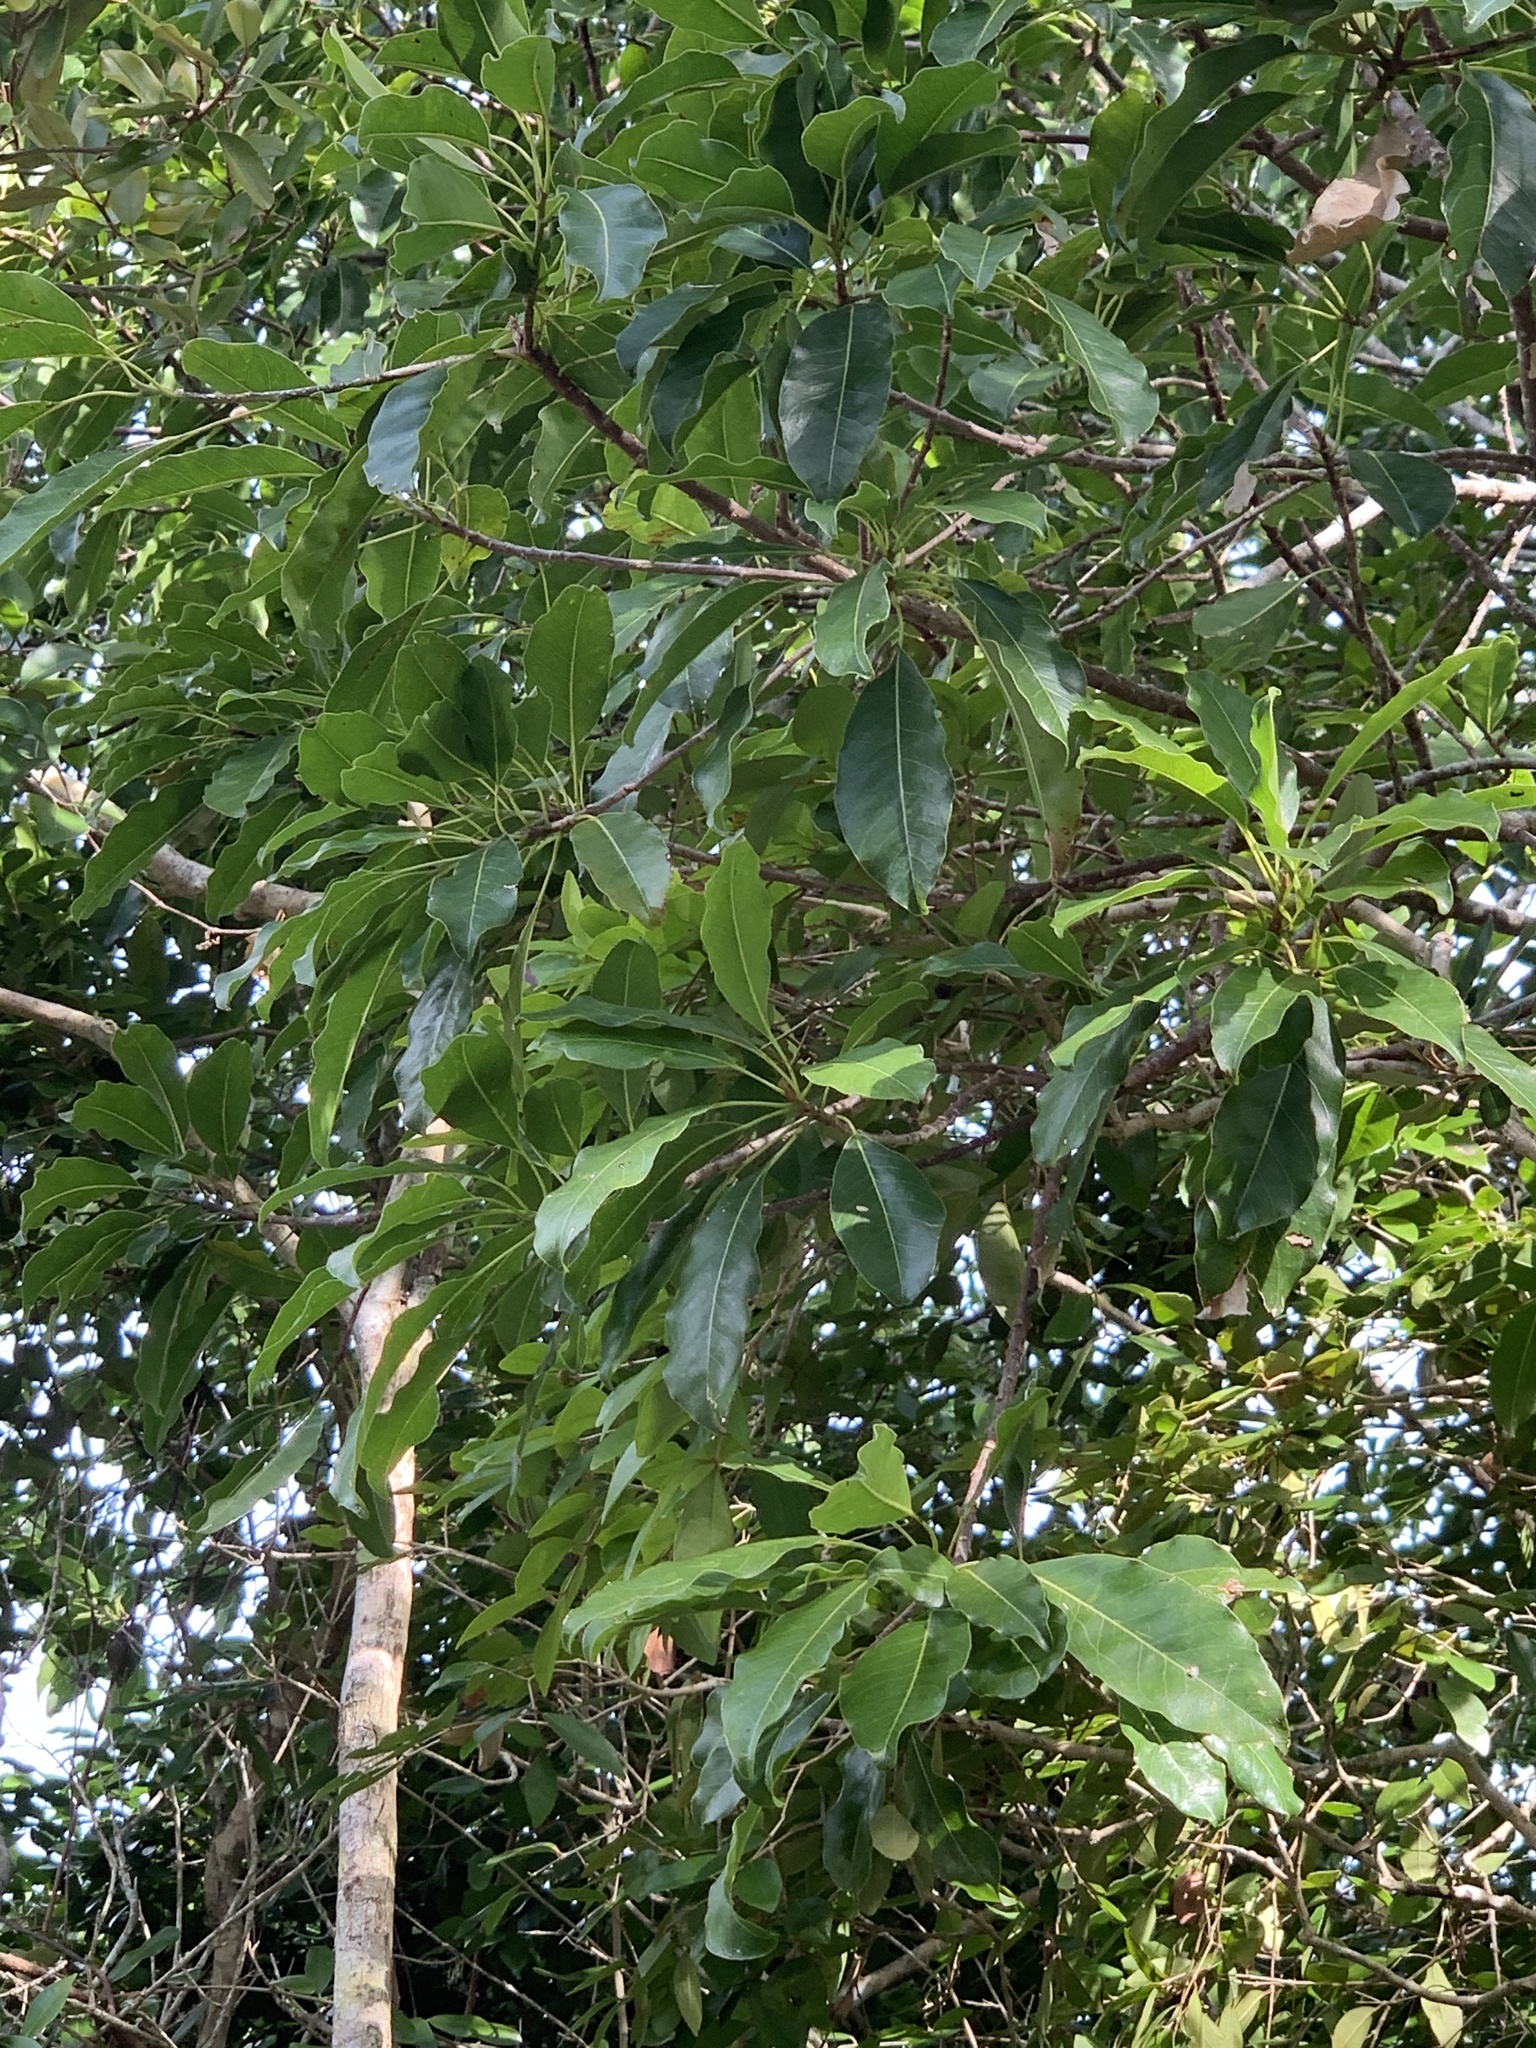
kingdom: Plantae
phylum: Tracheophyta
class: Magnoliopsida
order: Ericales
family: Sapotaceae
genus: Sideroxylon
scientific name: Sideroxylon foetidissimum
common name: Barbados-mastic
